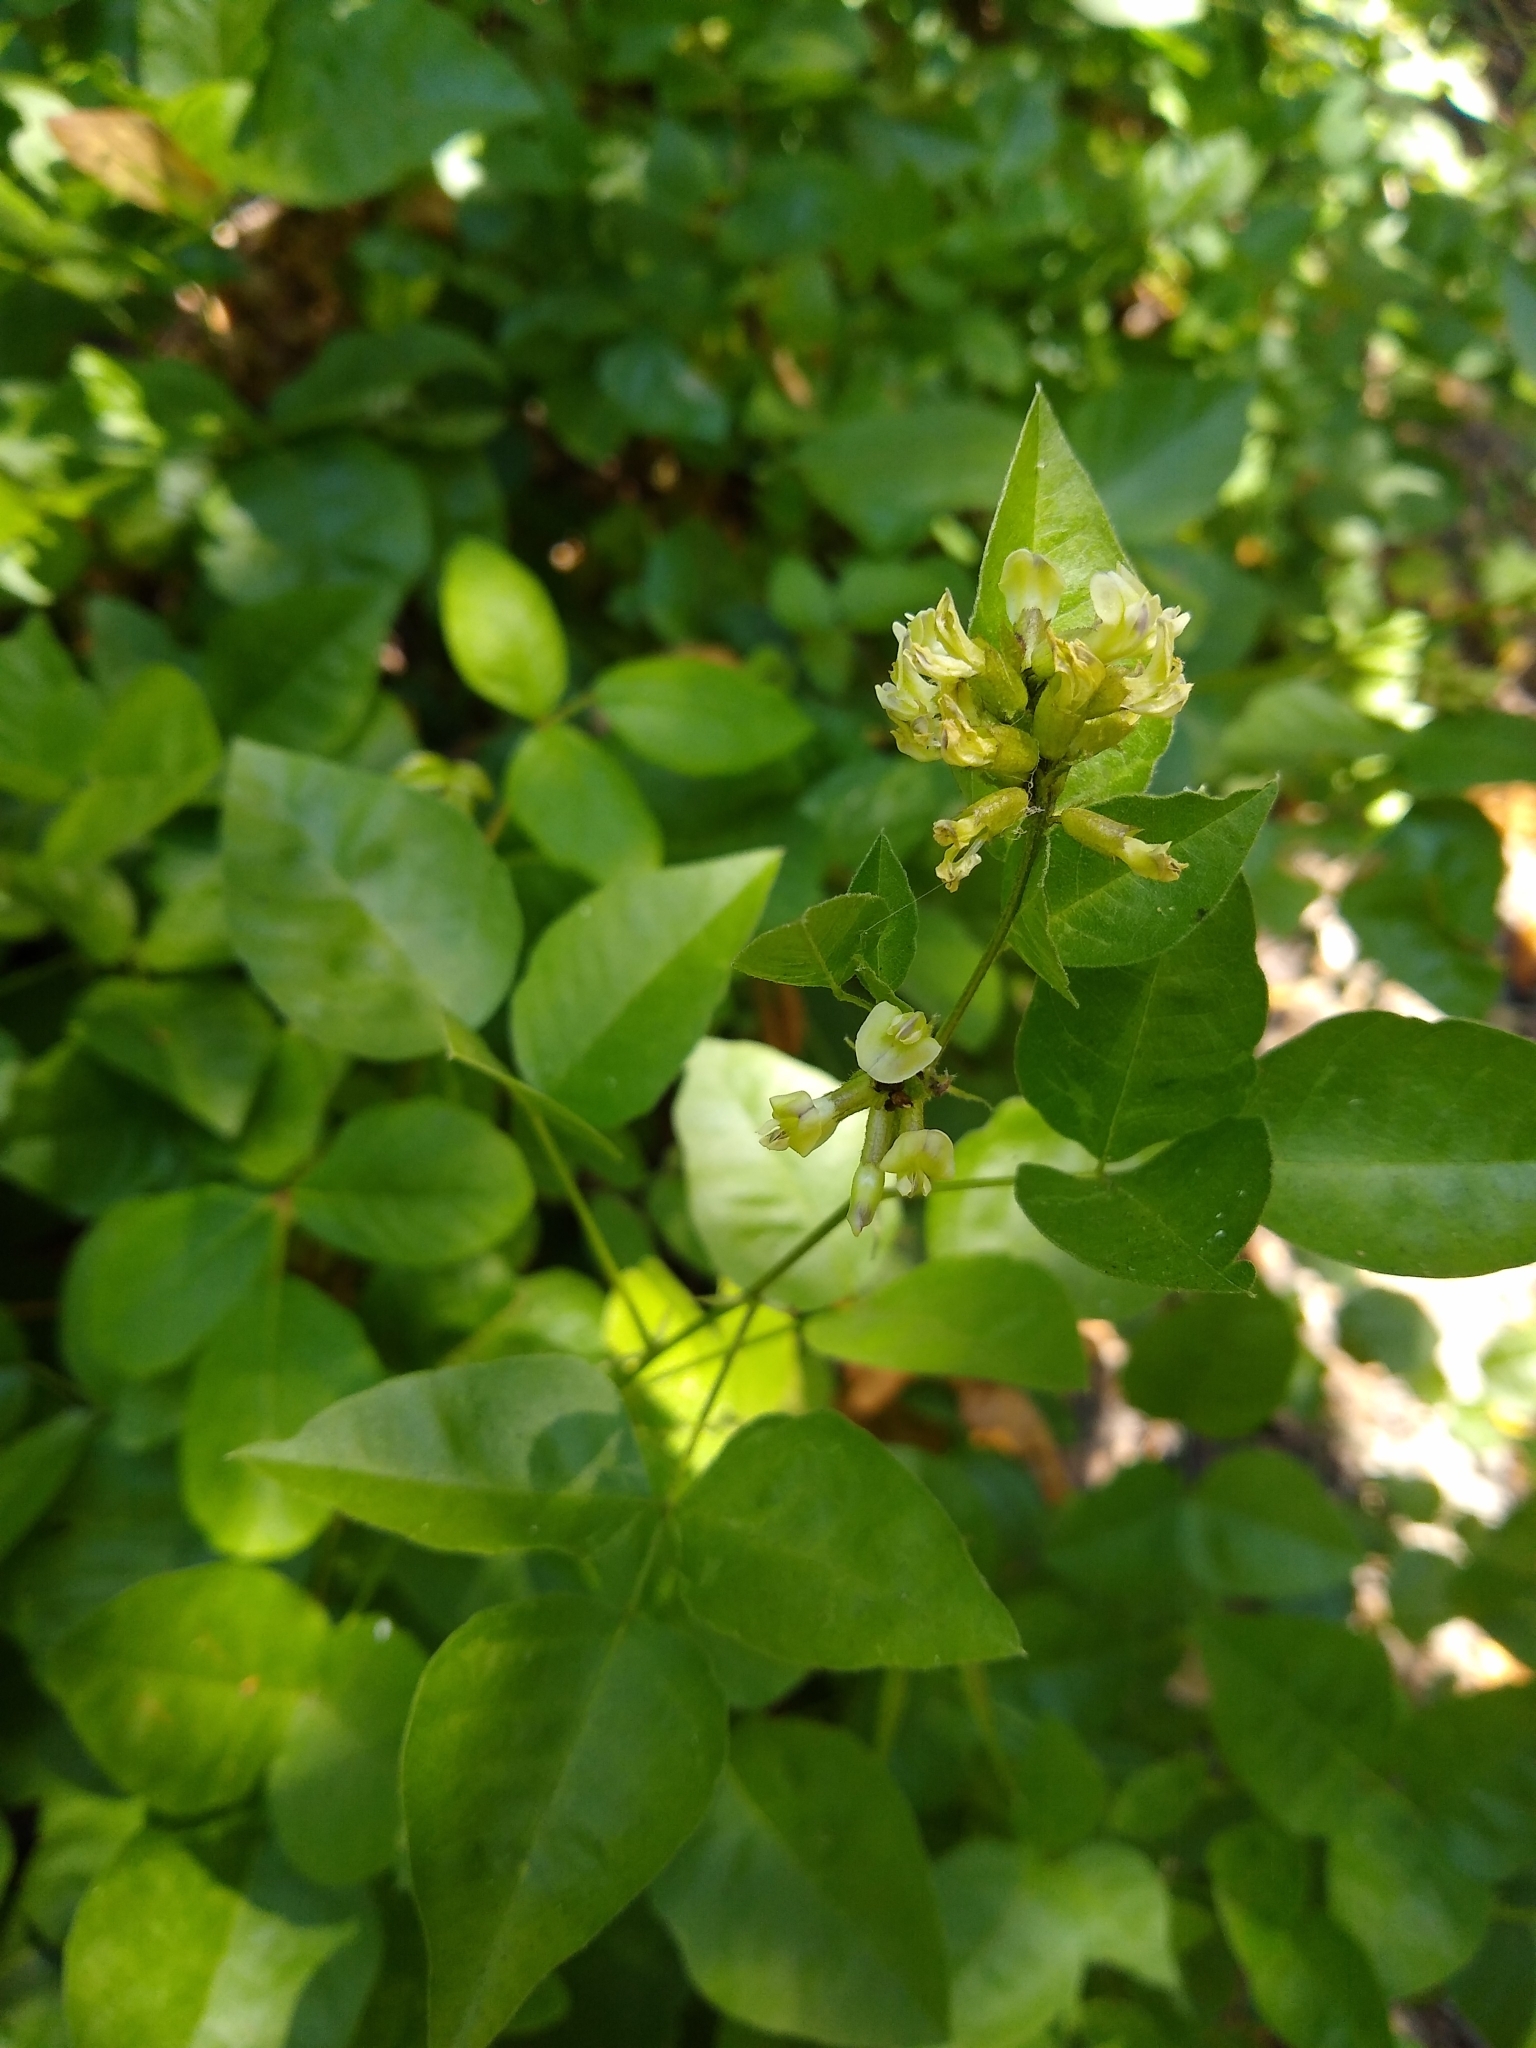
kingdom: Plantae
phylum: Tracheophyta
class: Magnoliopsida
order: Fabales
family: Fabaceae
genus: Rupertia
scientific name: Rupertia physodes
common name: California-tea
